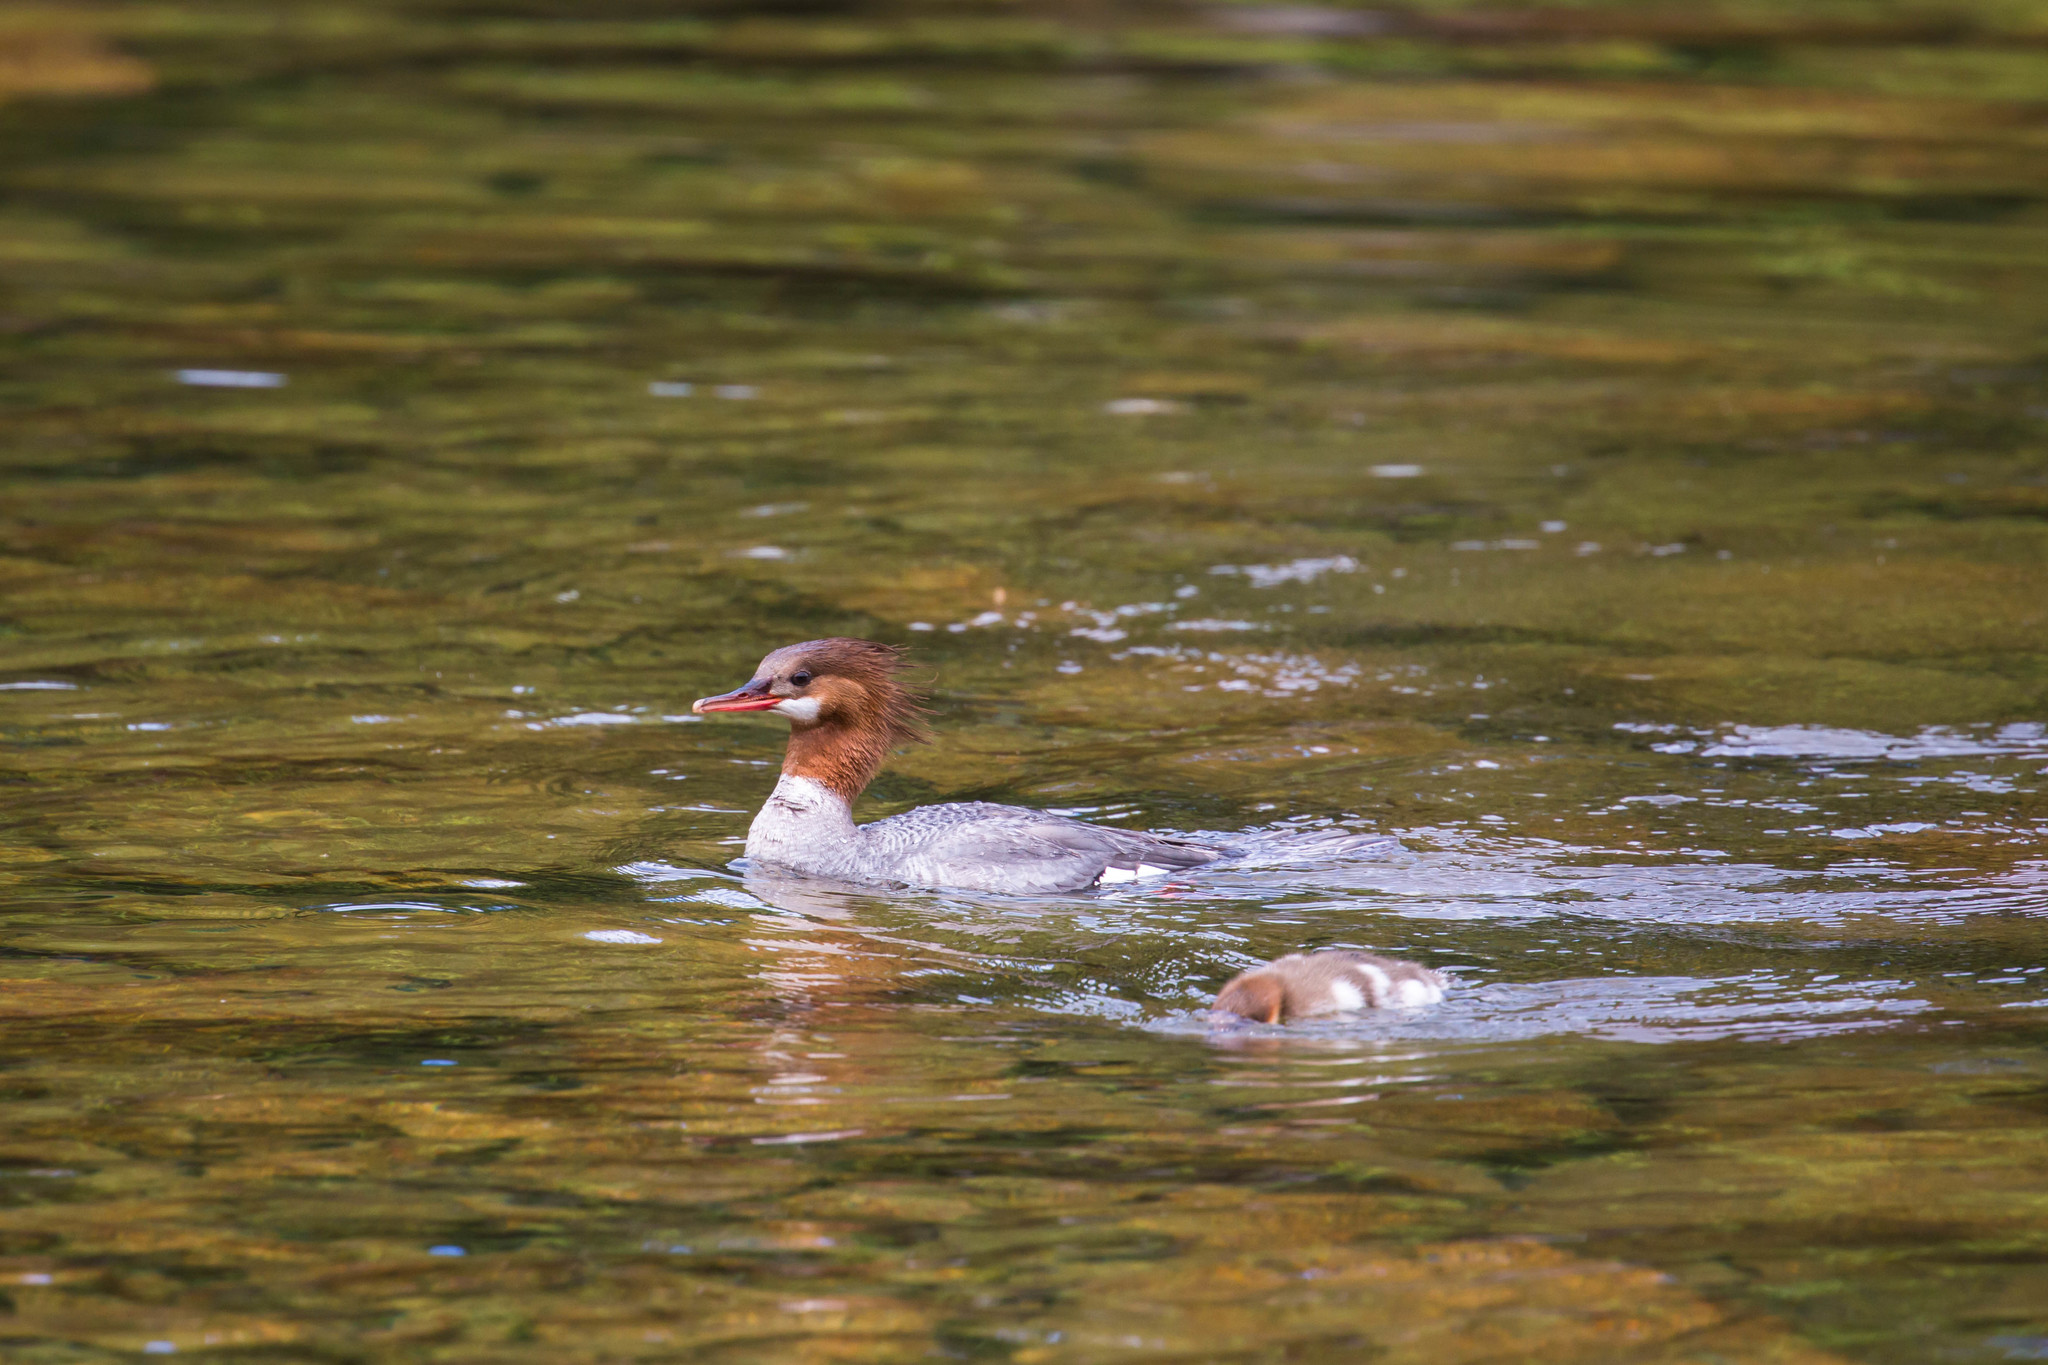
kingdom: Animalia
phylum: Chordata
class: Aves
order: Anseriformes
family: Anatidae
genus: Mergus
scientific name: Mergus merganser
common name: Common merganser
